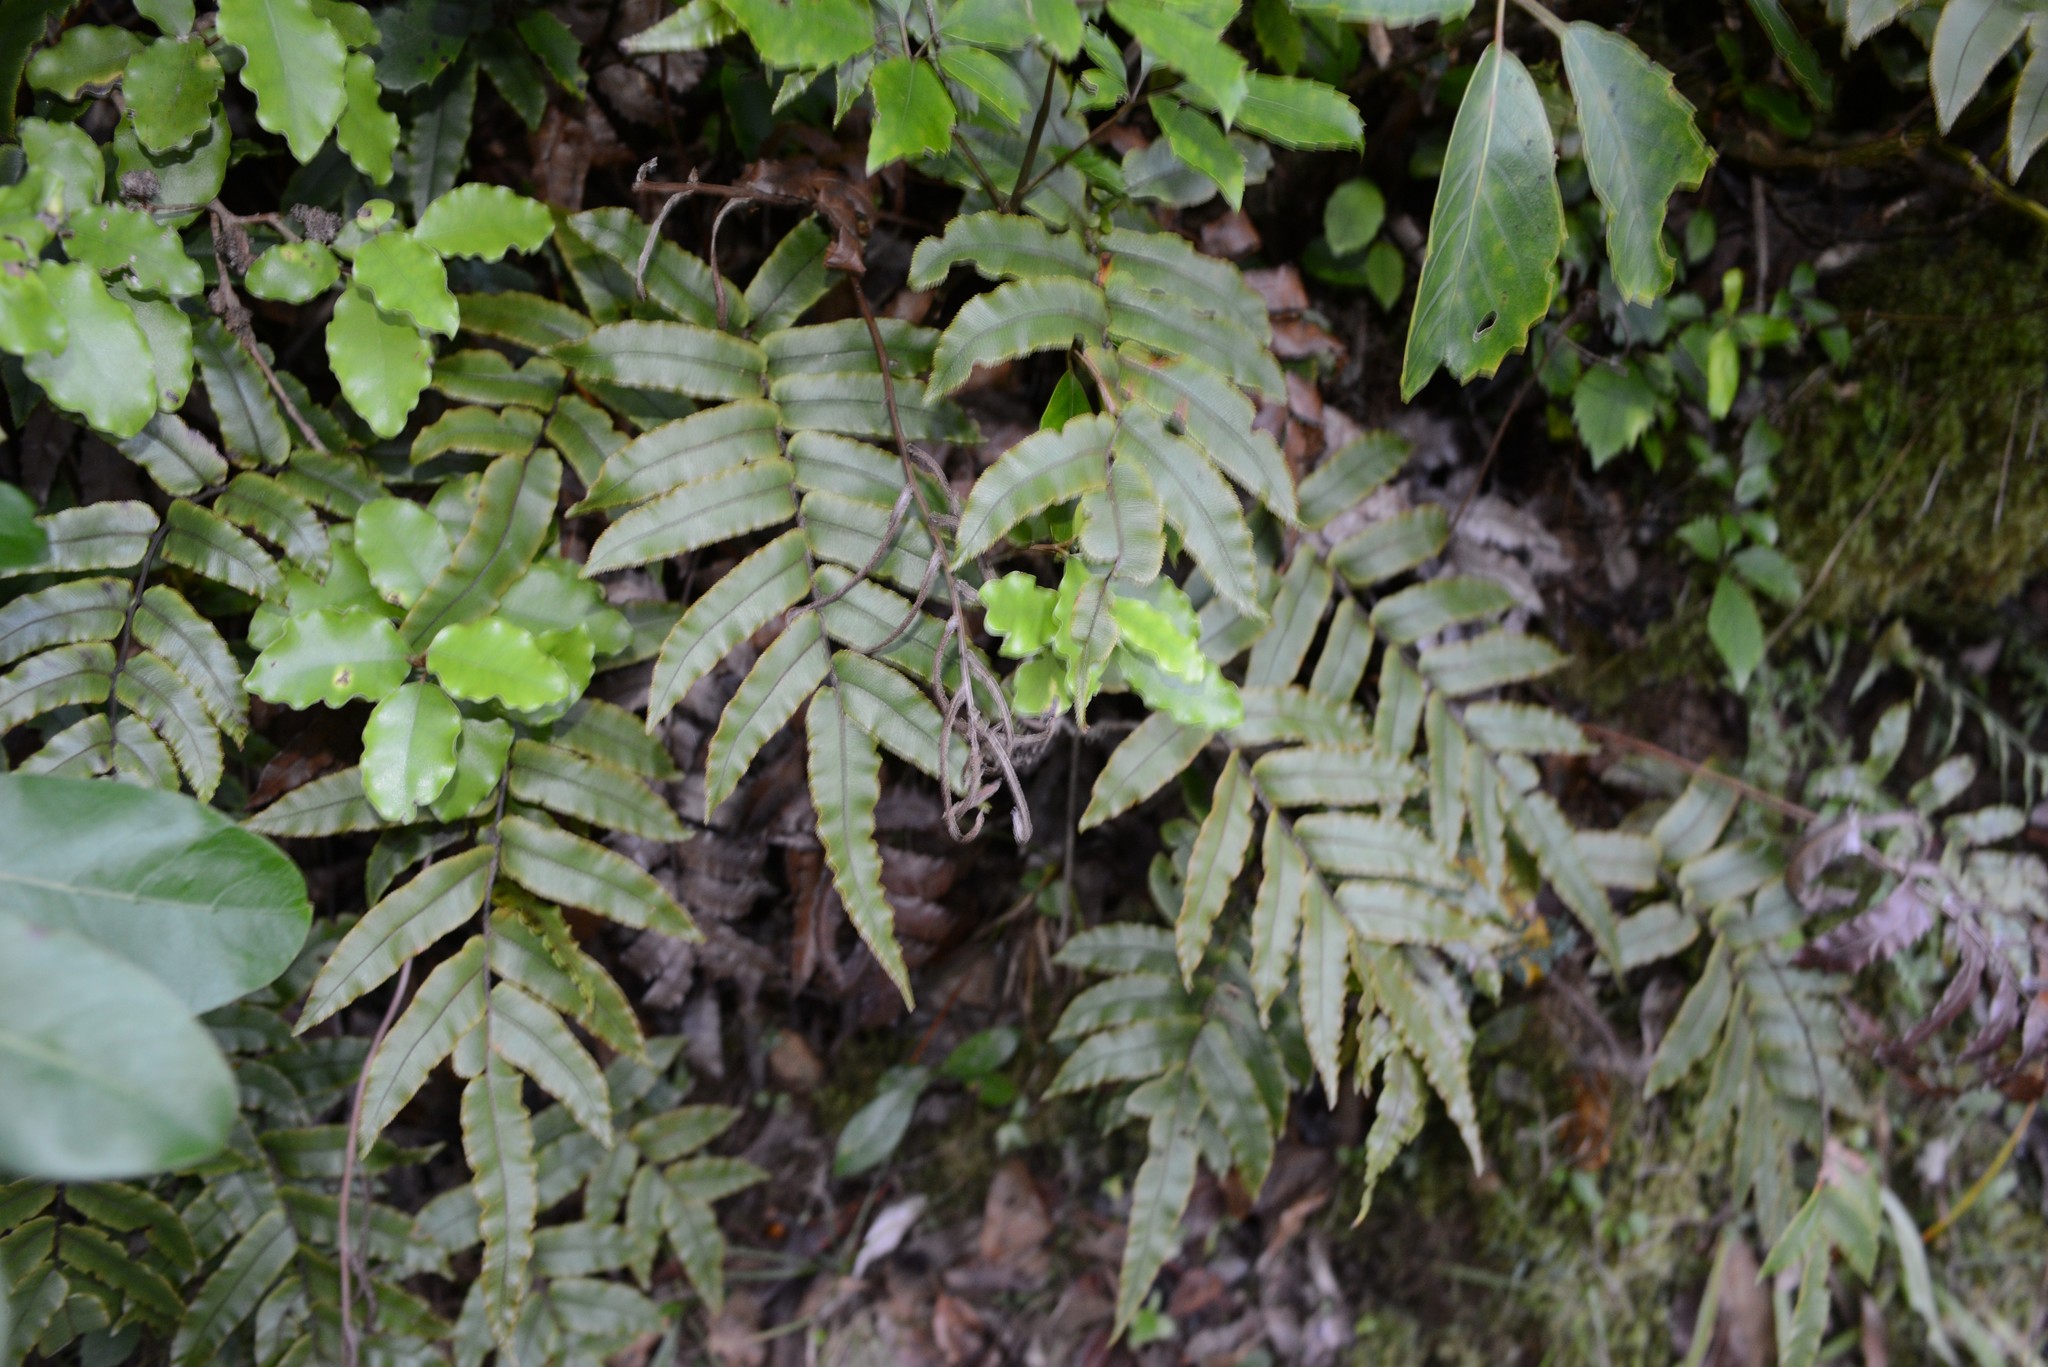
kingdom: Plantae
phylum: Tracheophyta
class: Polypodiopsida
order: Polypodiales
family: Blechnaceae
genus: Parablechnum
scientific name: Parablechnum procerum
